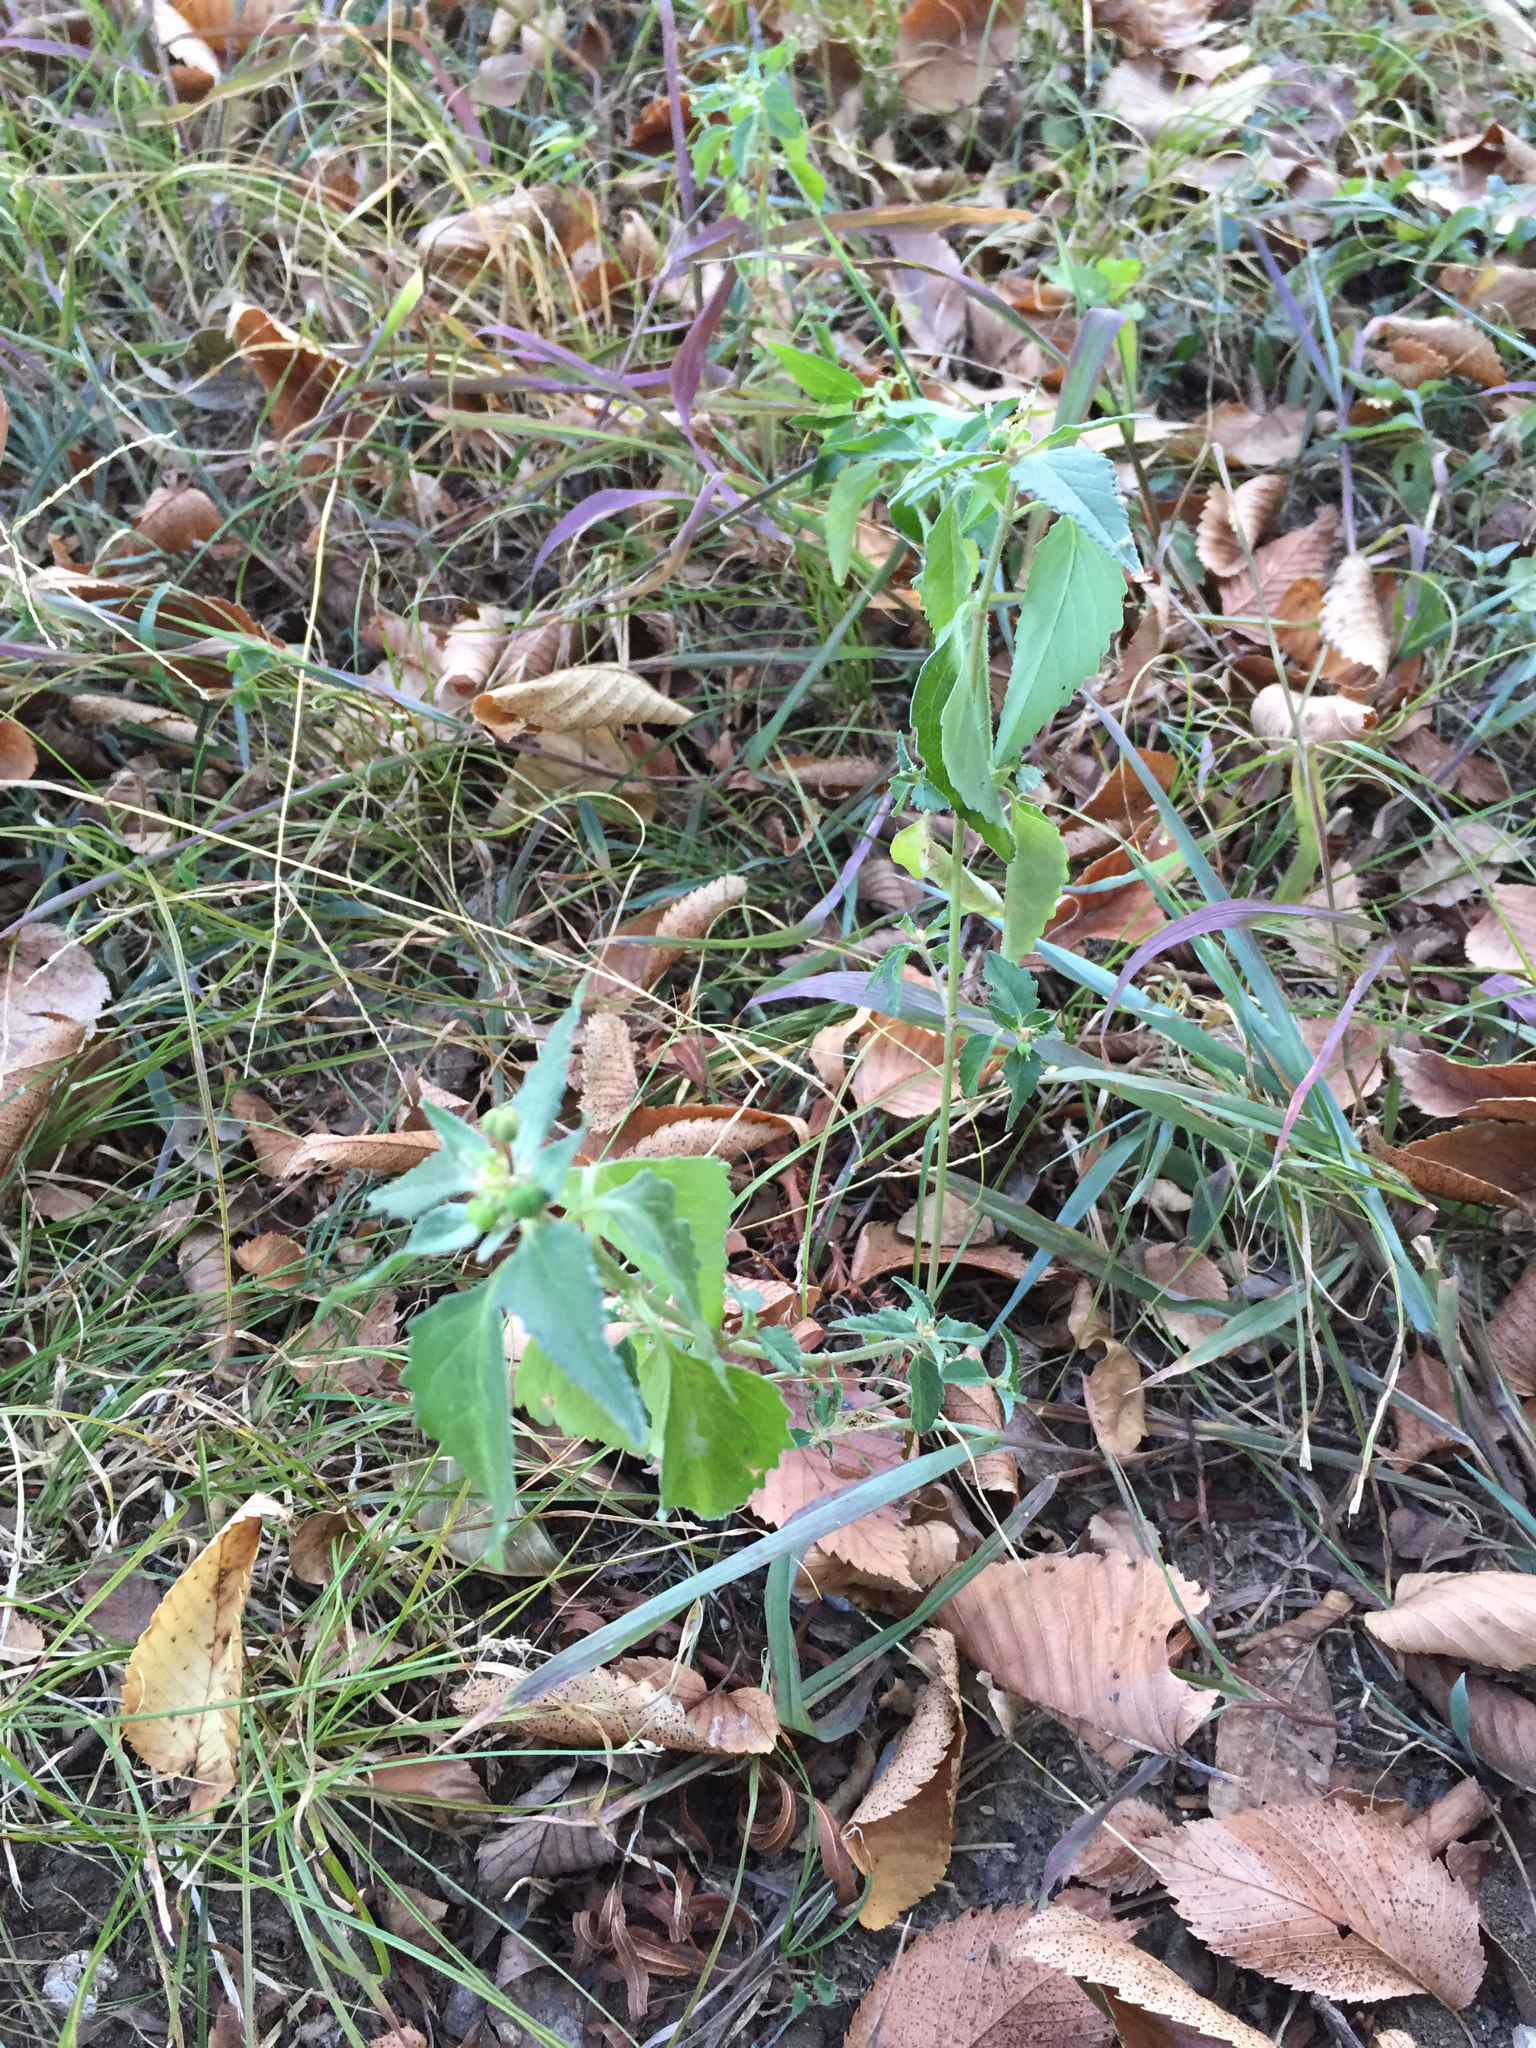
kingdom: Plantae
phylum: Tracheophyta
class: Magnoliopsida
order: Malpighiales
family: Euphorbiaceae
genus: Euphorbia
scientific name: Euphorbia dentata
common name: Dentate spurge
